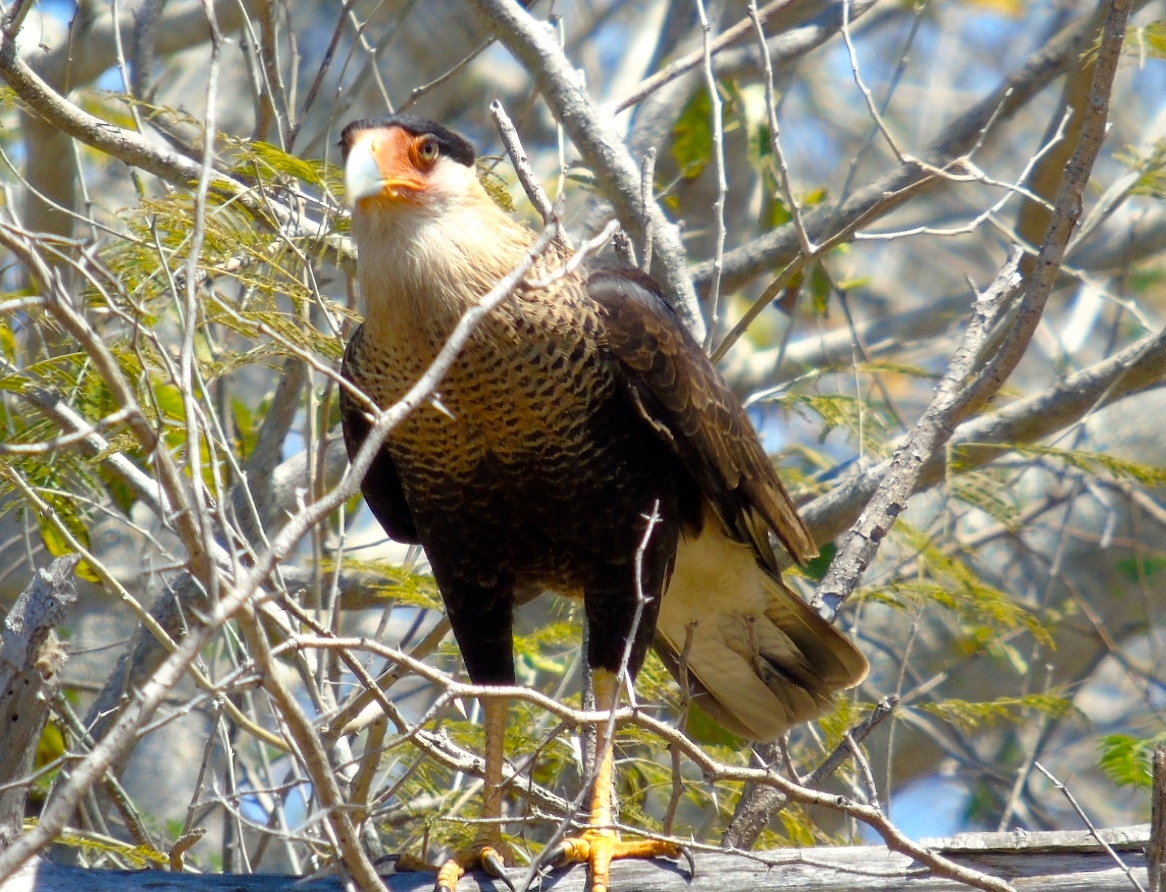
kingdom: Animalia
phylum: Chordata
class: Aves
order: Falconiformes
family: Falconidae
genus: Caracara
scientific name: Caracara plancus
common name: Southern caracara
